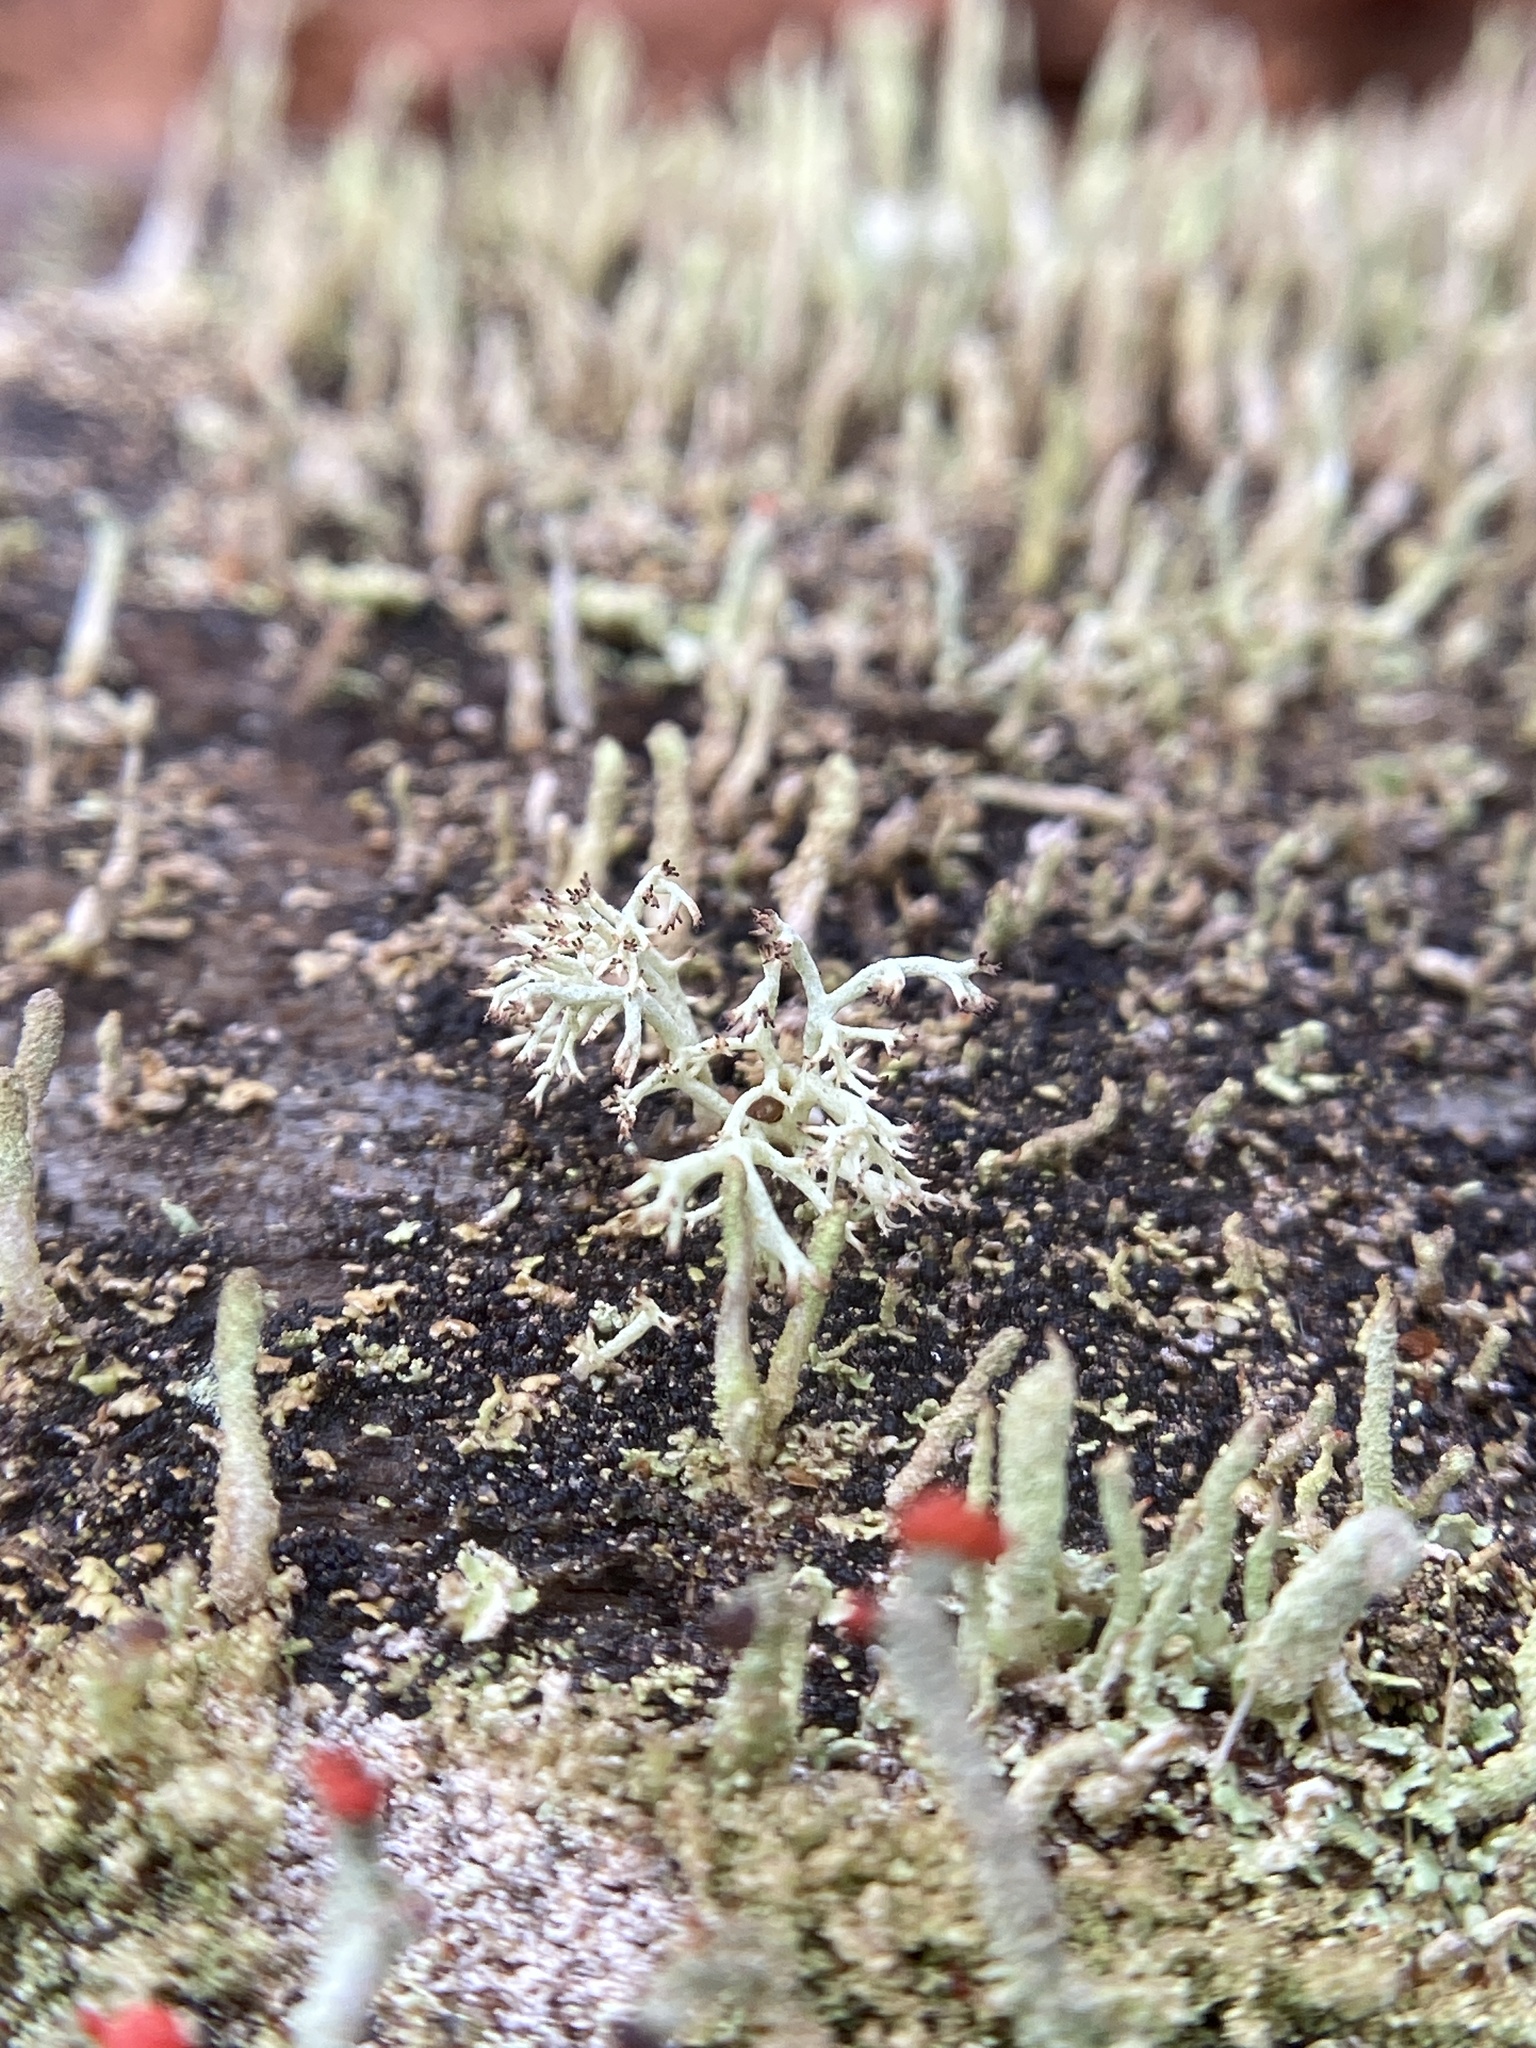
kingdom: Fungi
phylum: Ascomycota
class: Lecanoromycetes
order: Lecanorales
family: Cladoniaceae
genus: Cladonia
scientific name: Cladonia rangiferina
